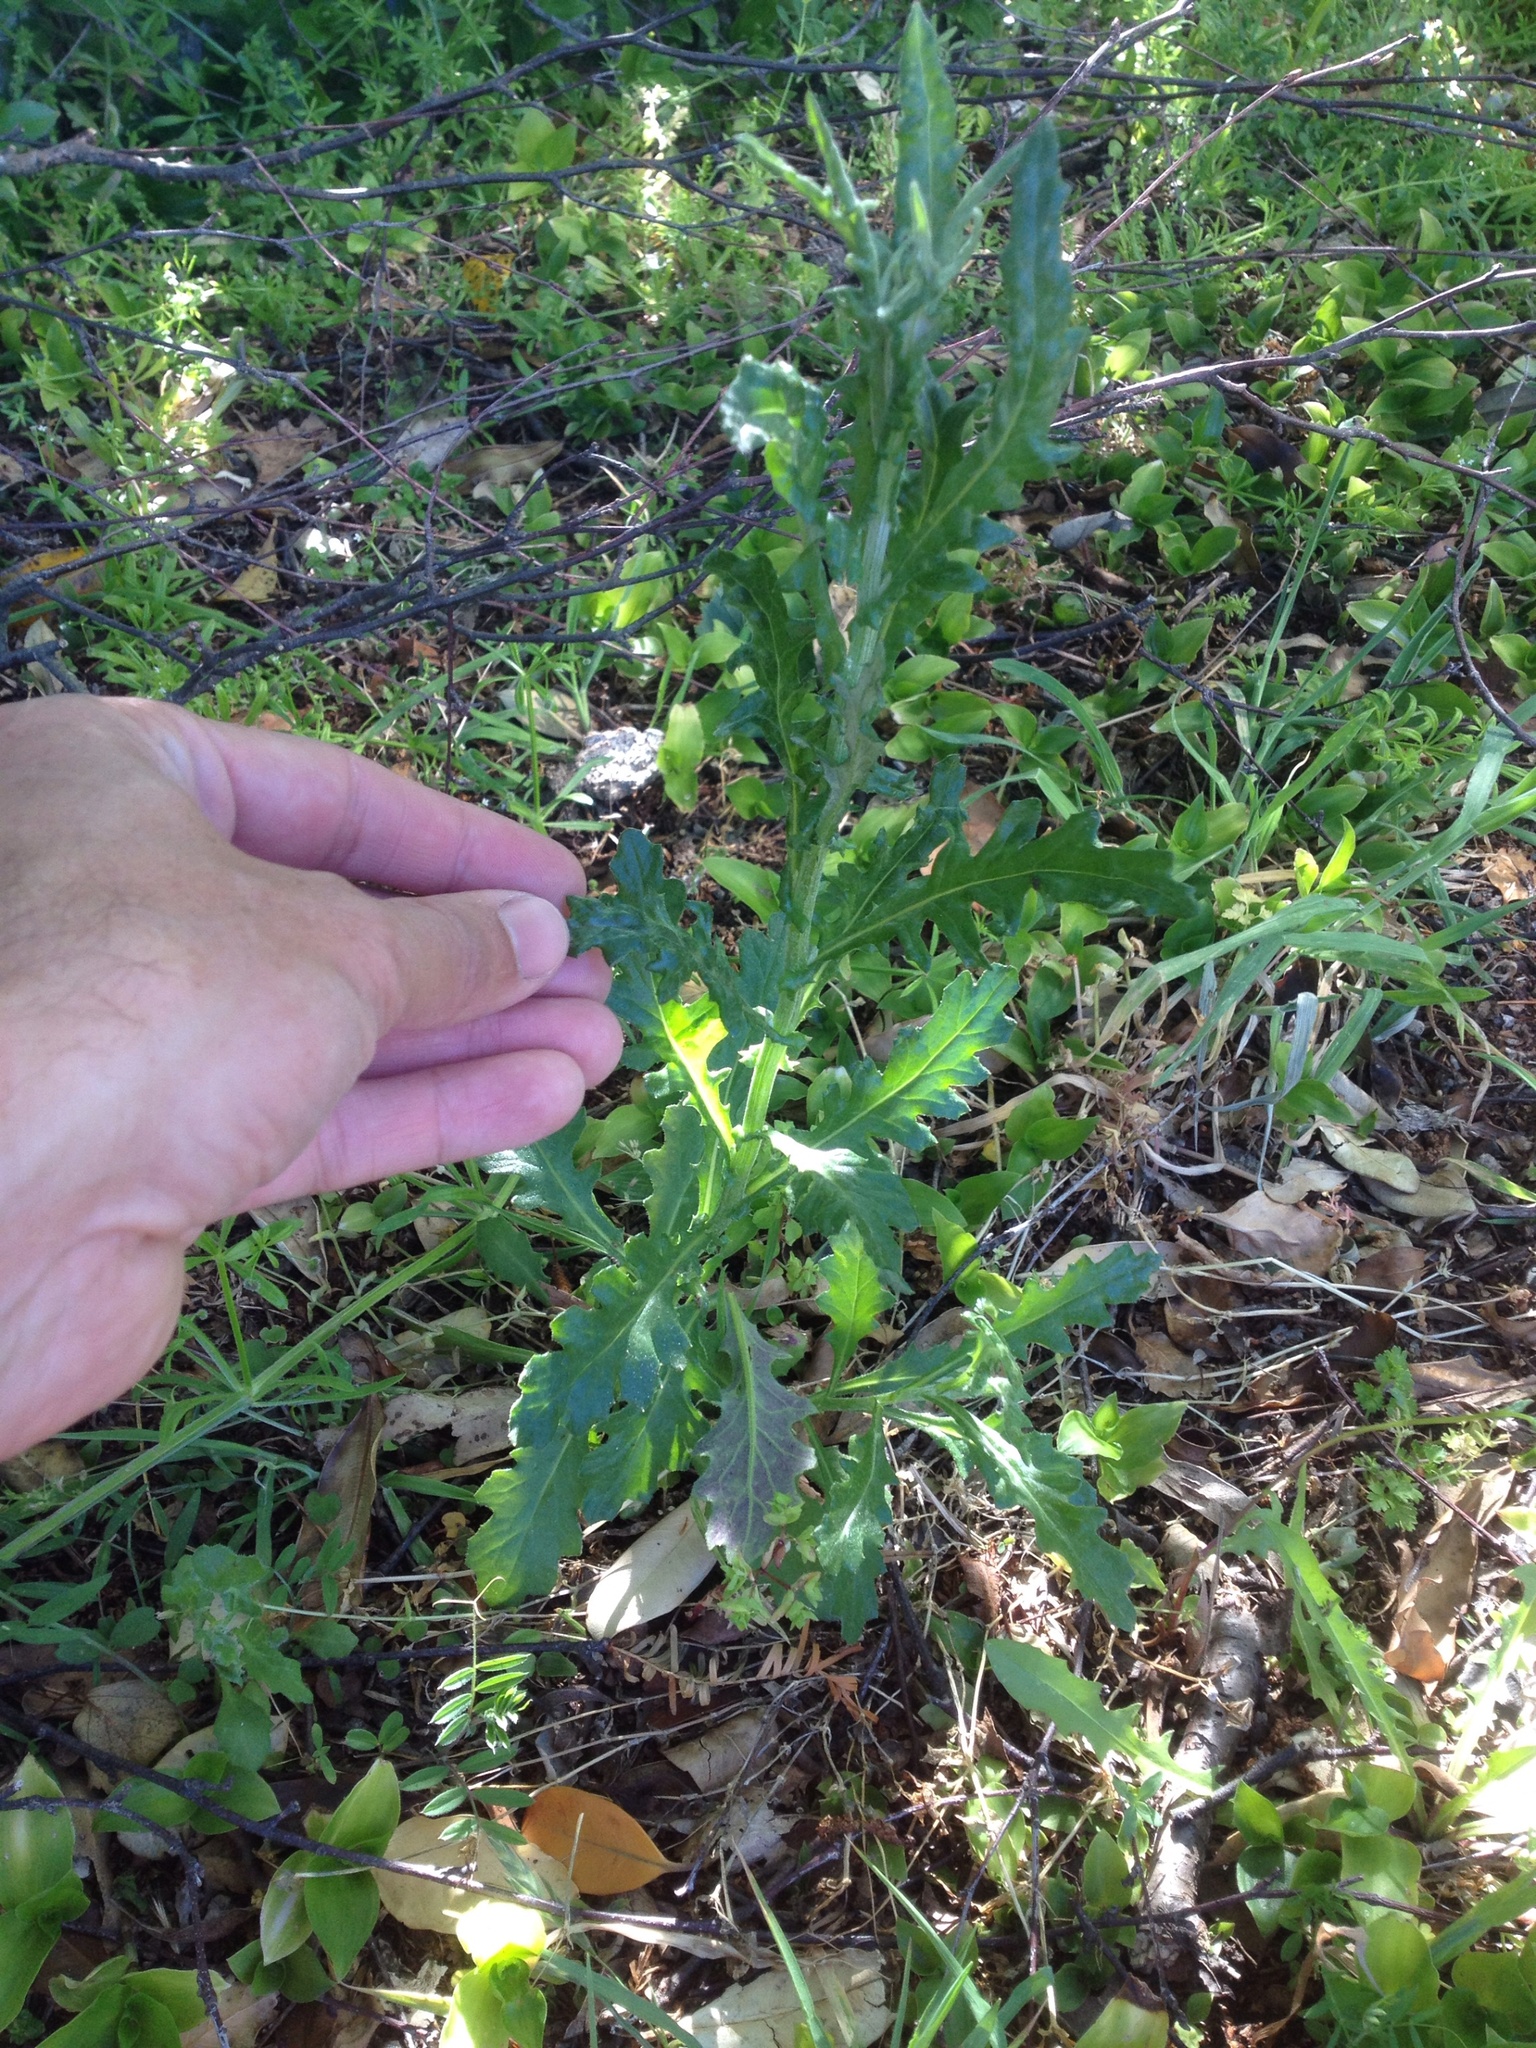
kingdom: Plantae
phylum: Tracheophyta
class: Magnoliopsida
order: Asterales
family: Asteraceae
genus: Senecio
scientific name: Senecio glomeratus
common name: Cutleaf burnweed
